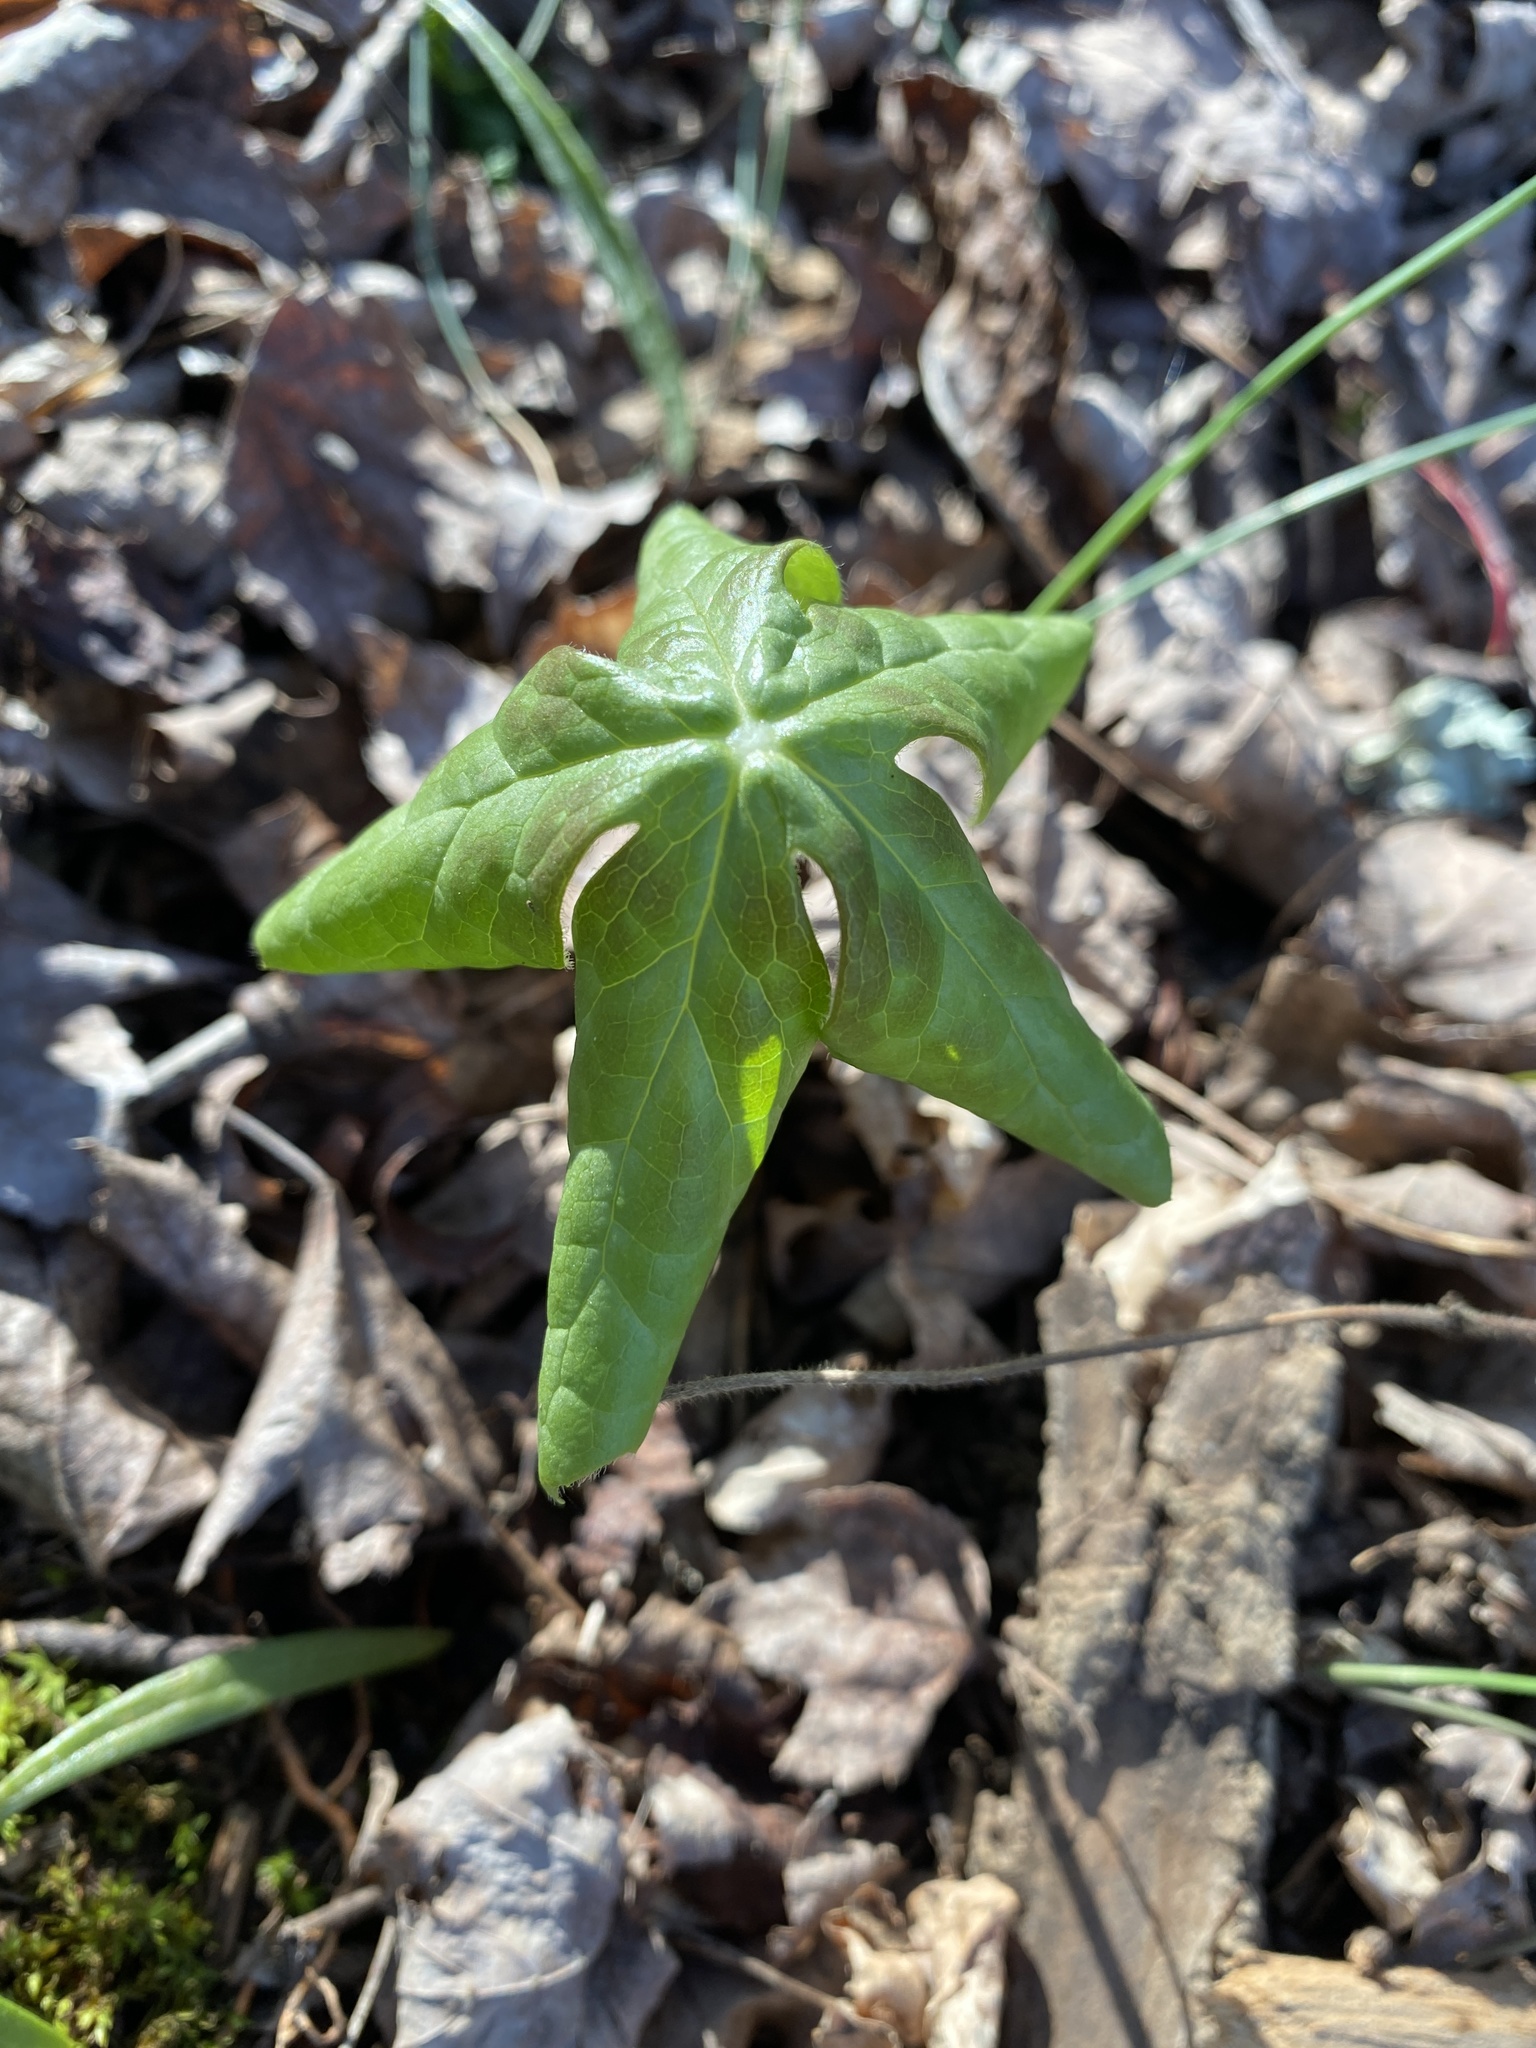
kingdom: Plantae
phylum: Tracheophyta
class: Magnoliopsida
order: Ranunculales
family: Berberidaceae
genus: Podophyllum
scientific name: Podophyllum peltatum
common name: Wild mandrake
